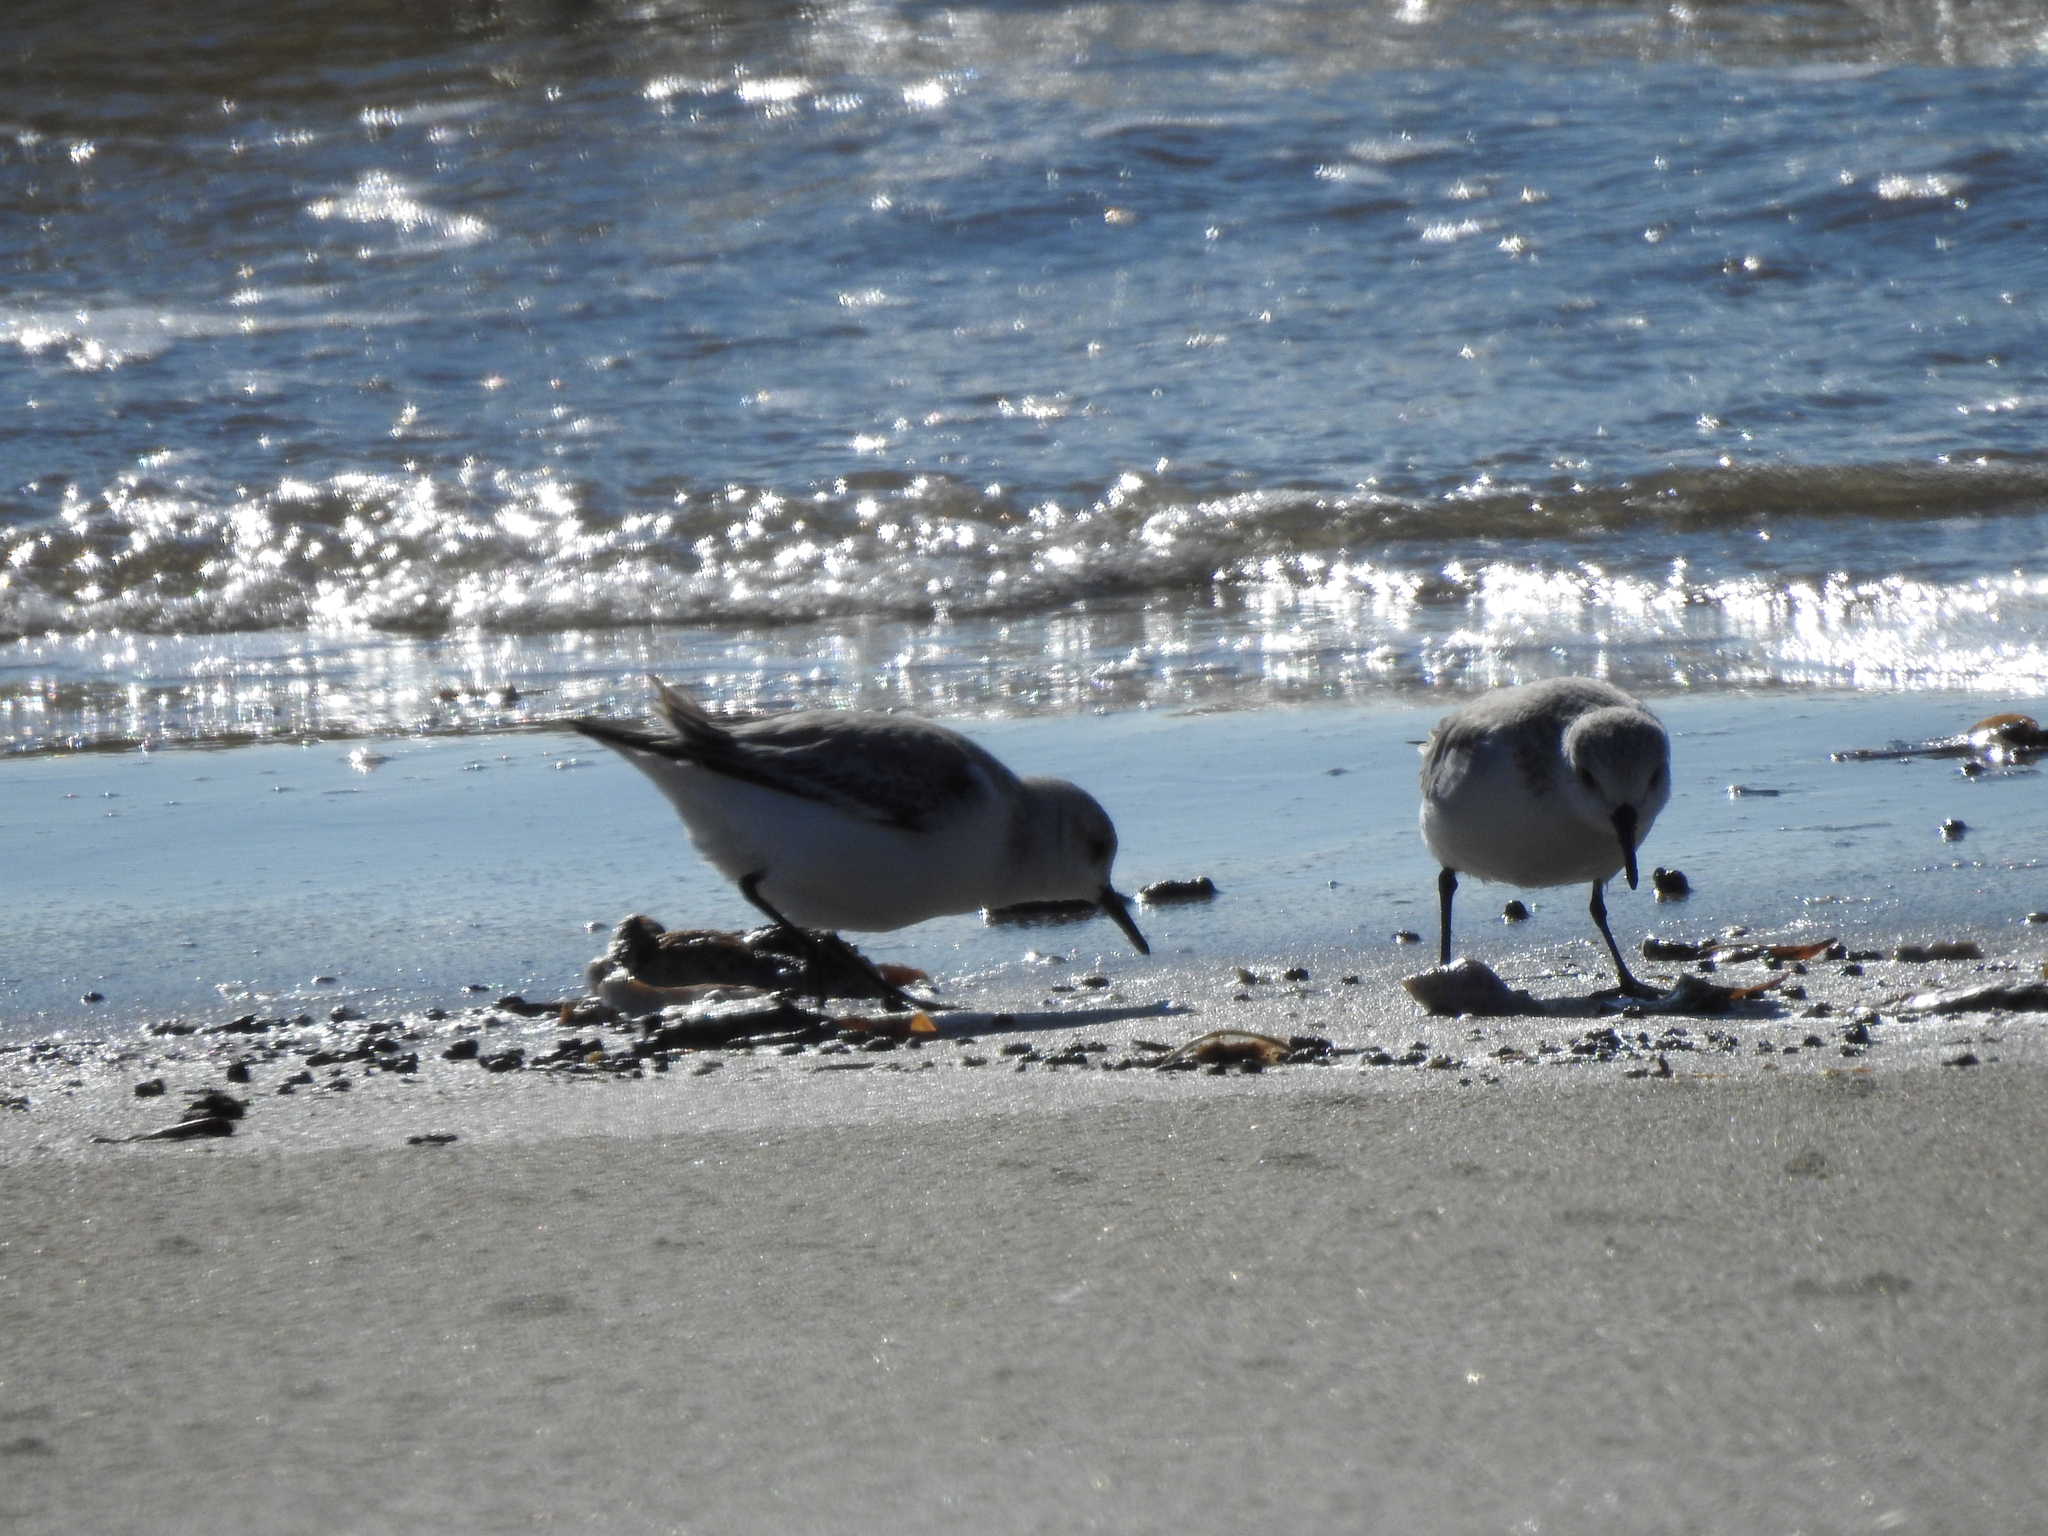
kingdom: Animalia
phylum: Chordata
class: Aves
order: Charadriiformes
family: Scolopacidae
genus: Calidris
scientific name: Calidris alba
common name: Sanderling
